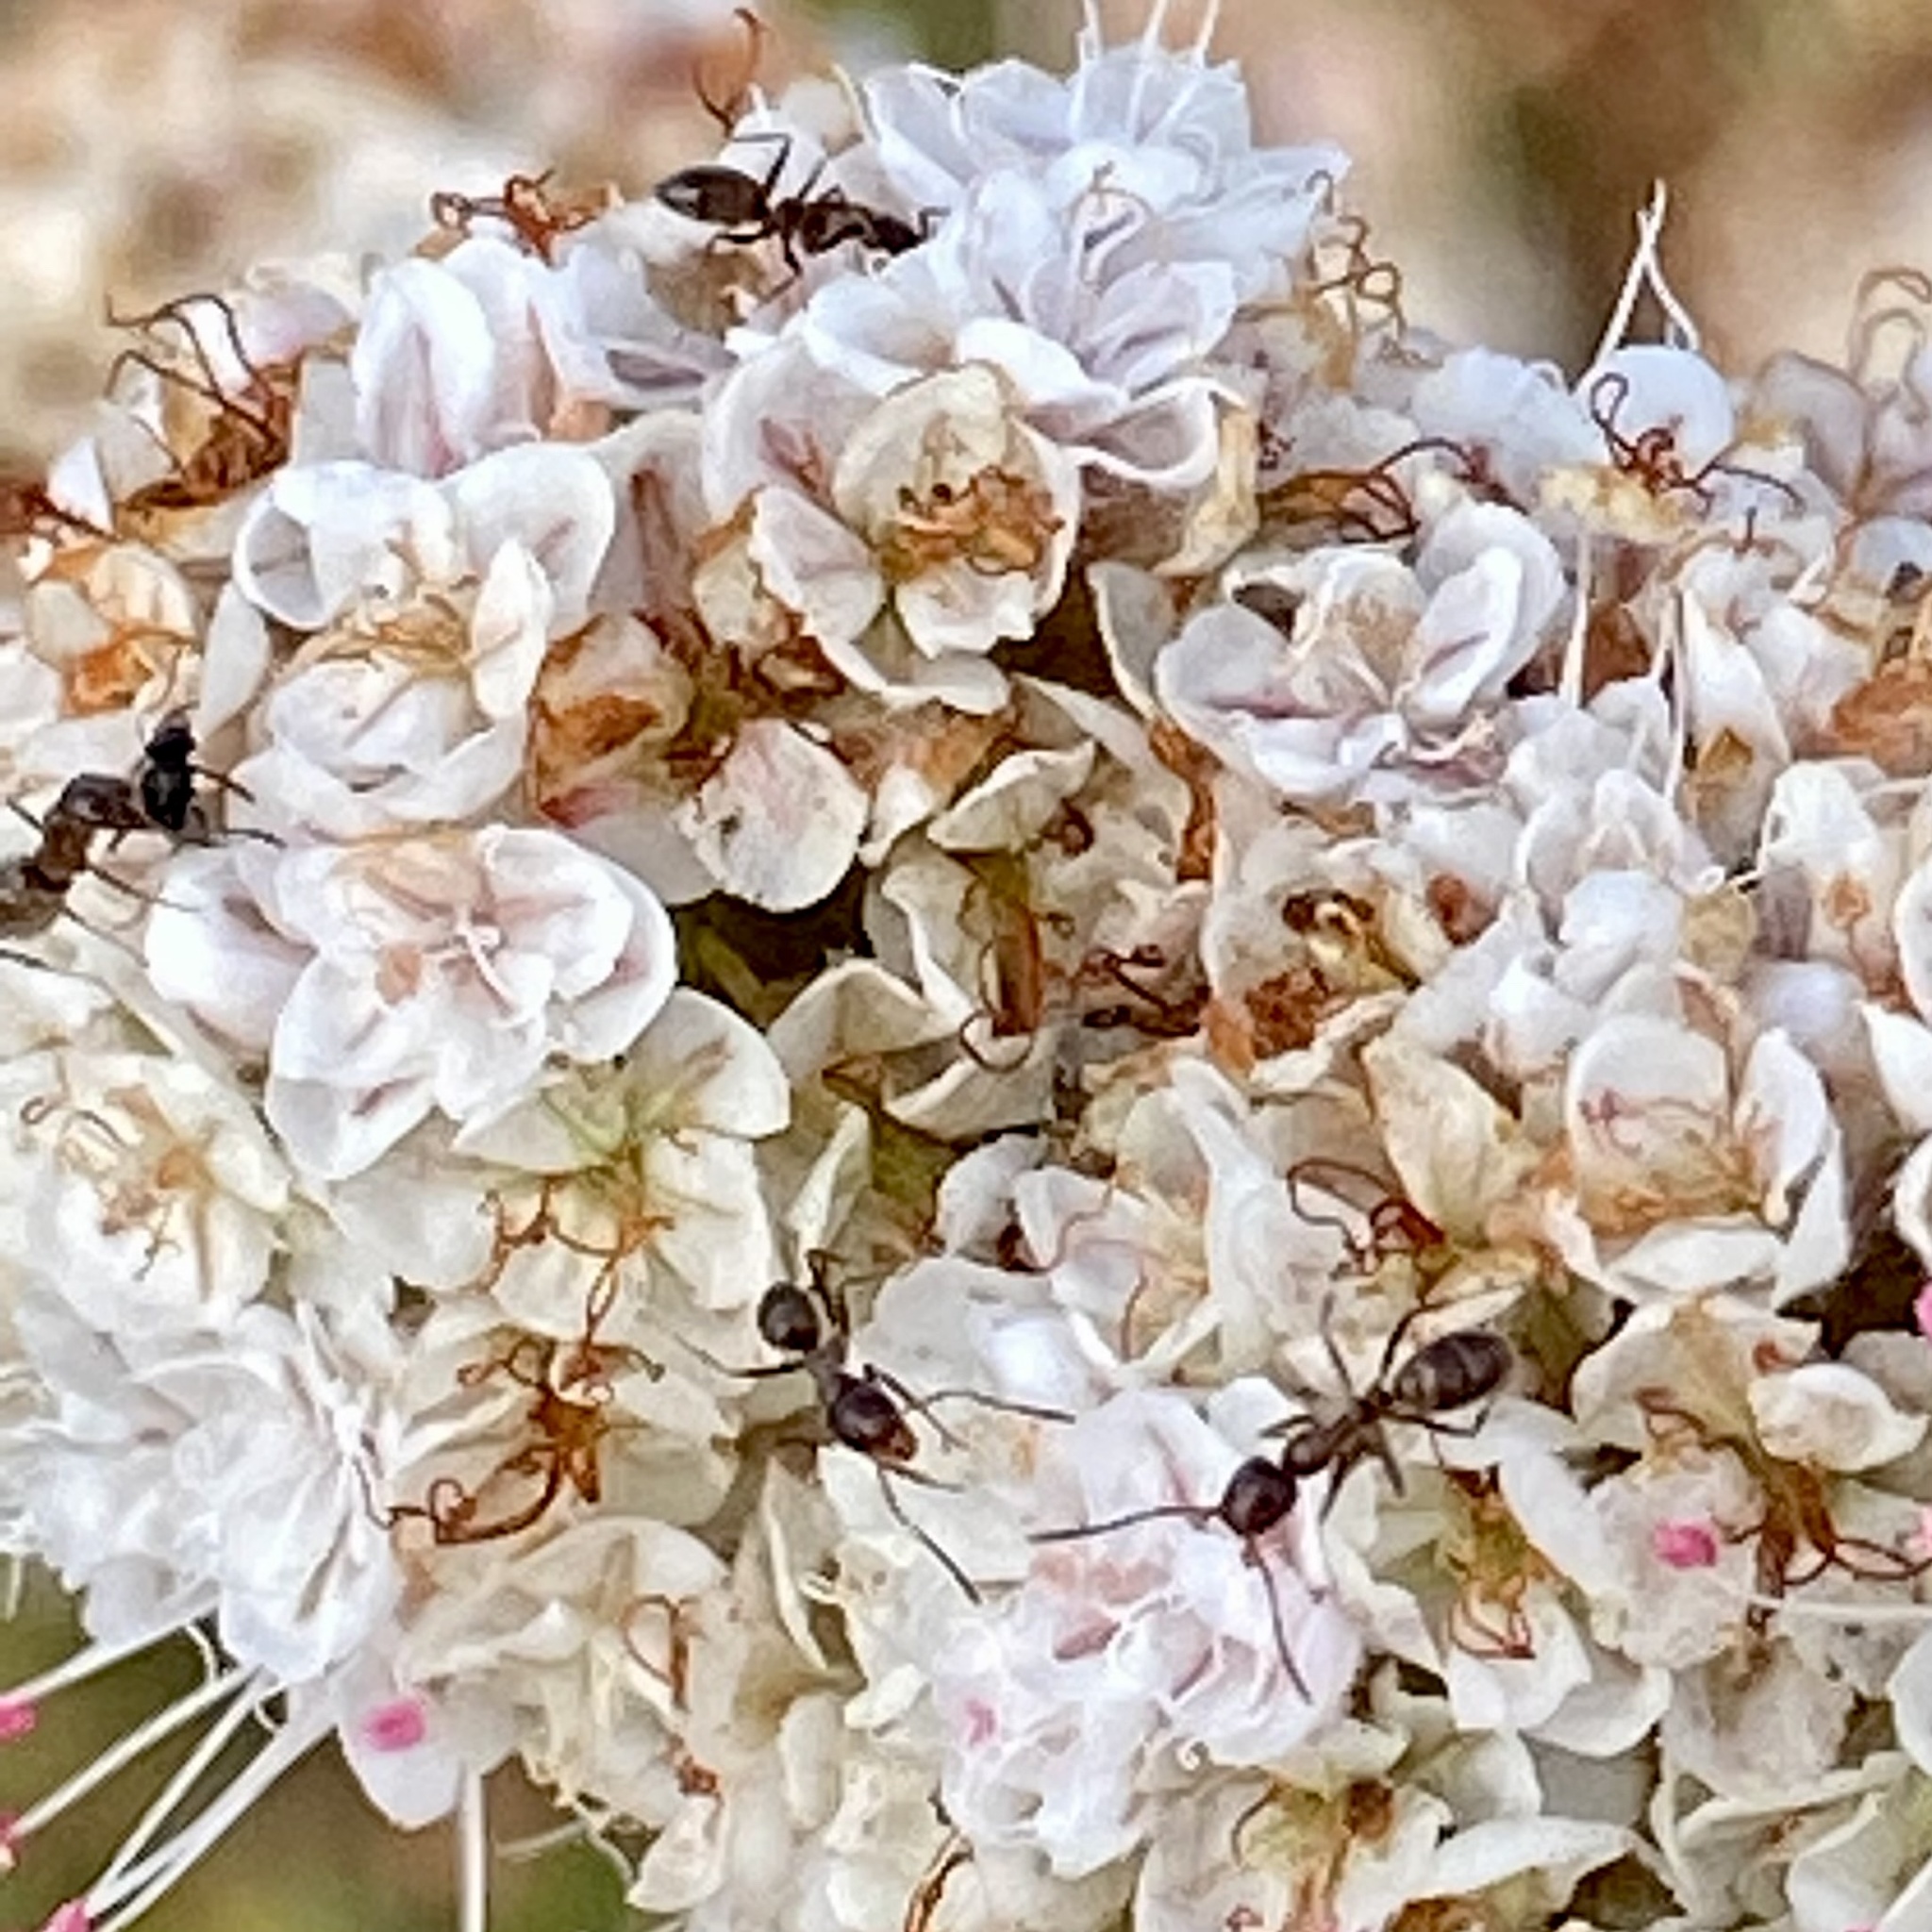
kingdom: Animalia
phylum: Arthropoda
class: Insecta
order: Hymenoptera
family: Formicidae
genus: Linepithema
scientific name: Linepithema humile
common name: Argentine ant
